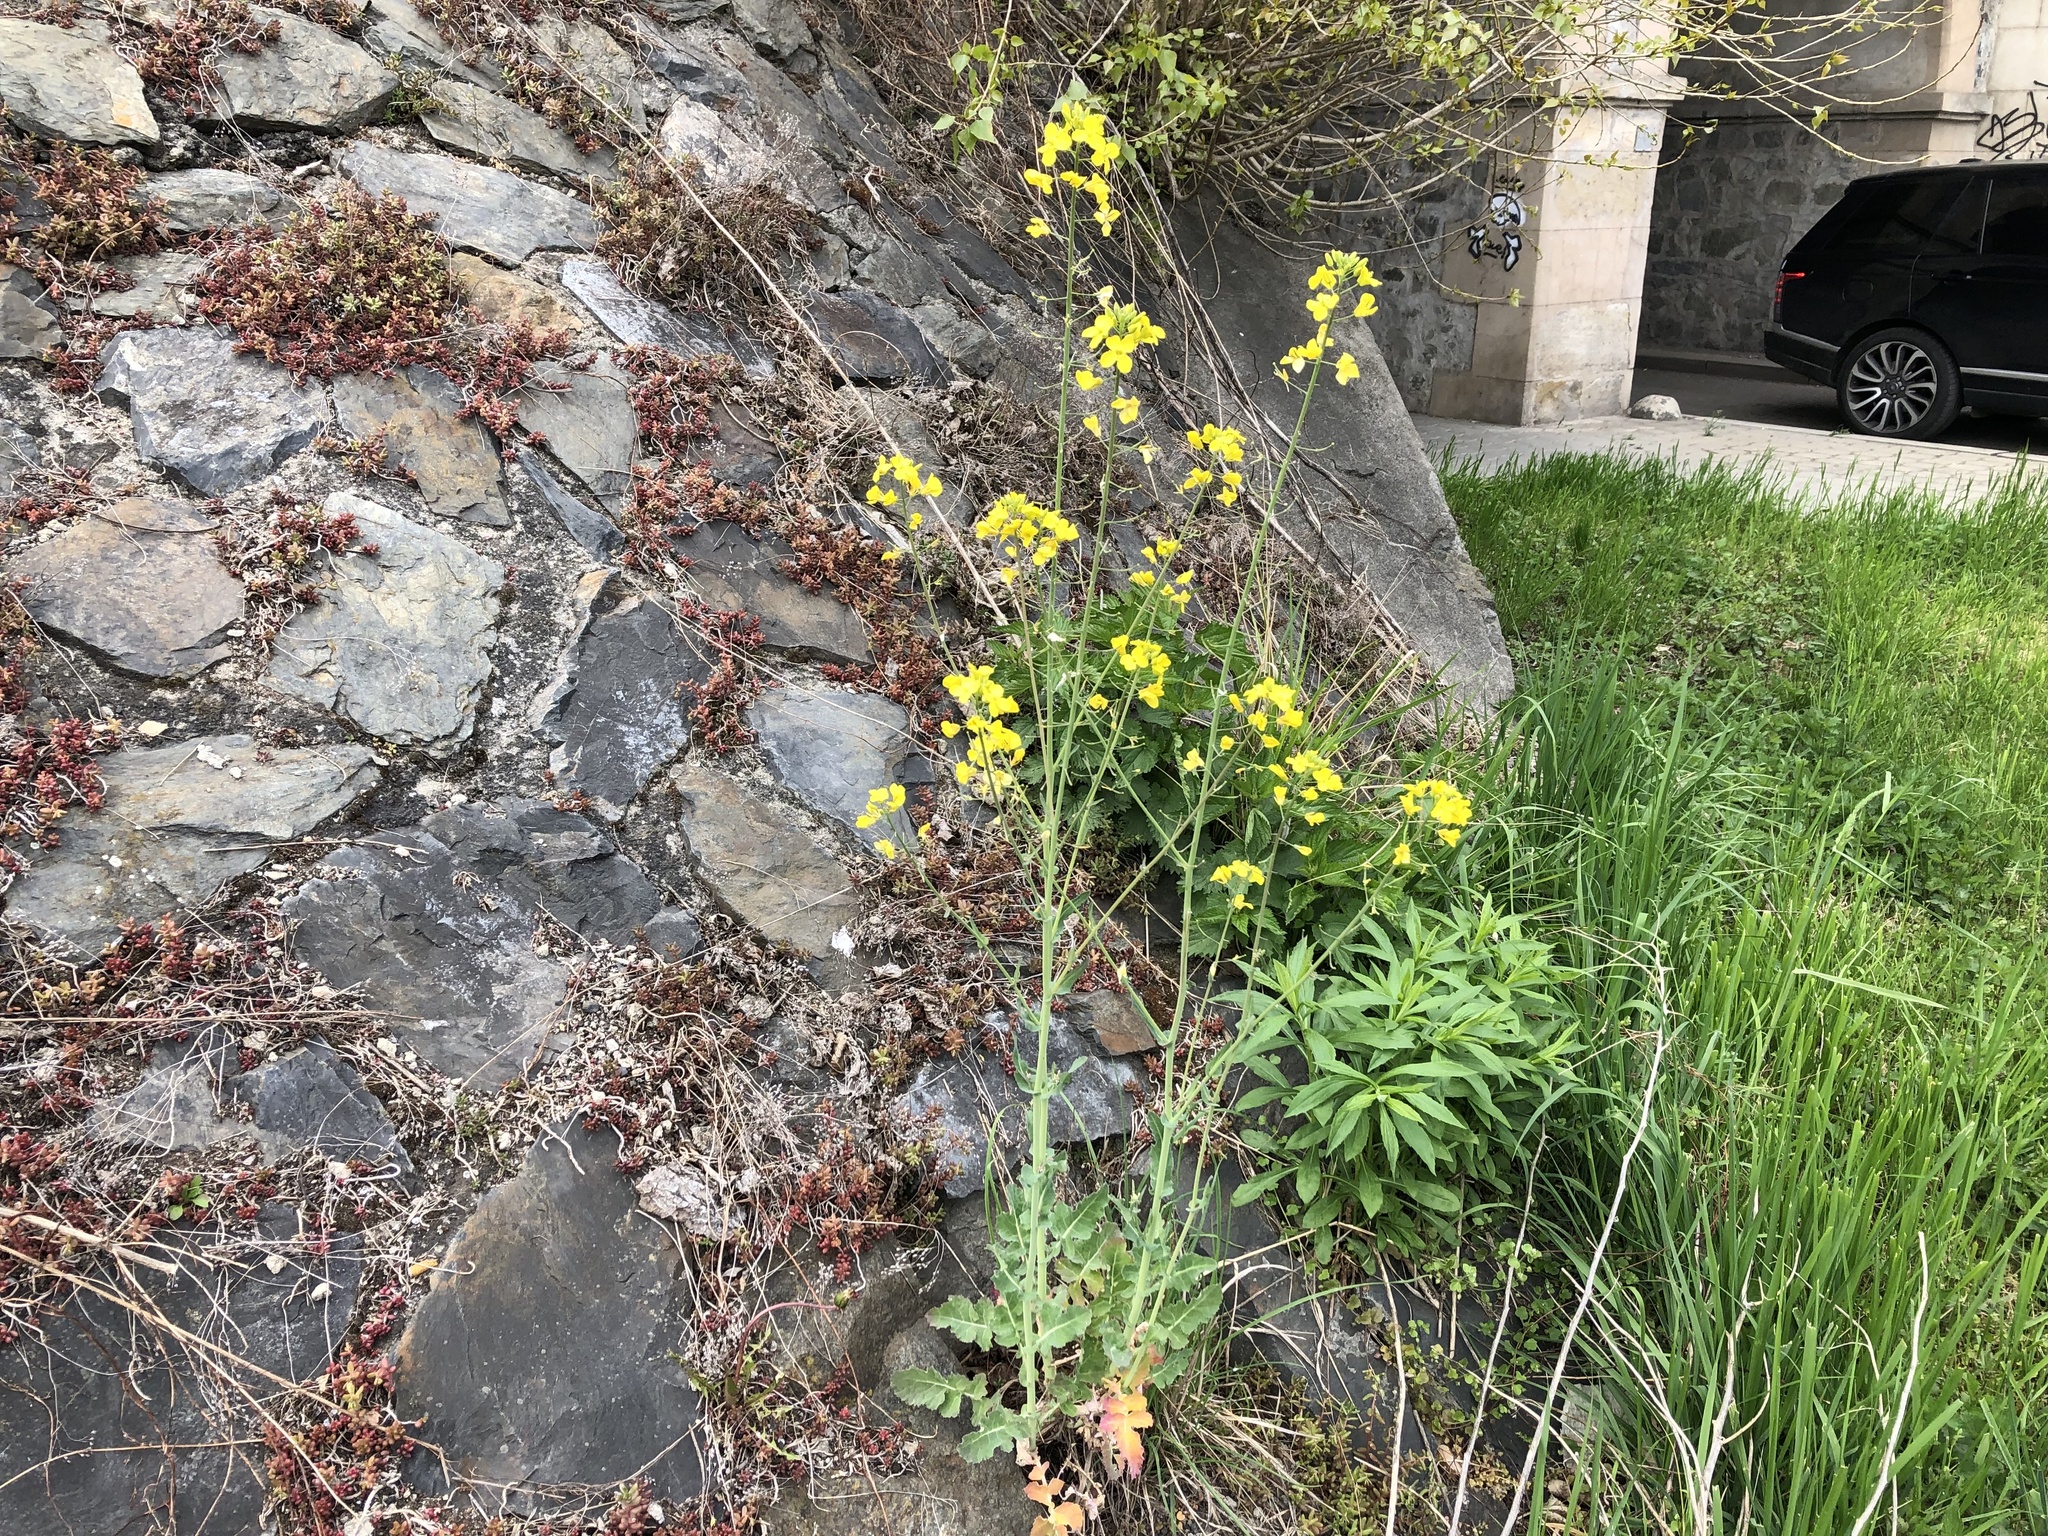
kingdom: Plantae
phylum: Tracheophyta
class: Magnoliopsida
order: Brassicales
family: Brassicaceae
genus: Brassica
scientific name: Brassica napus
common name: Rape
